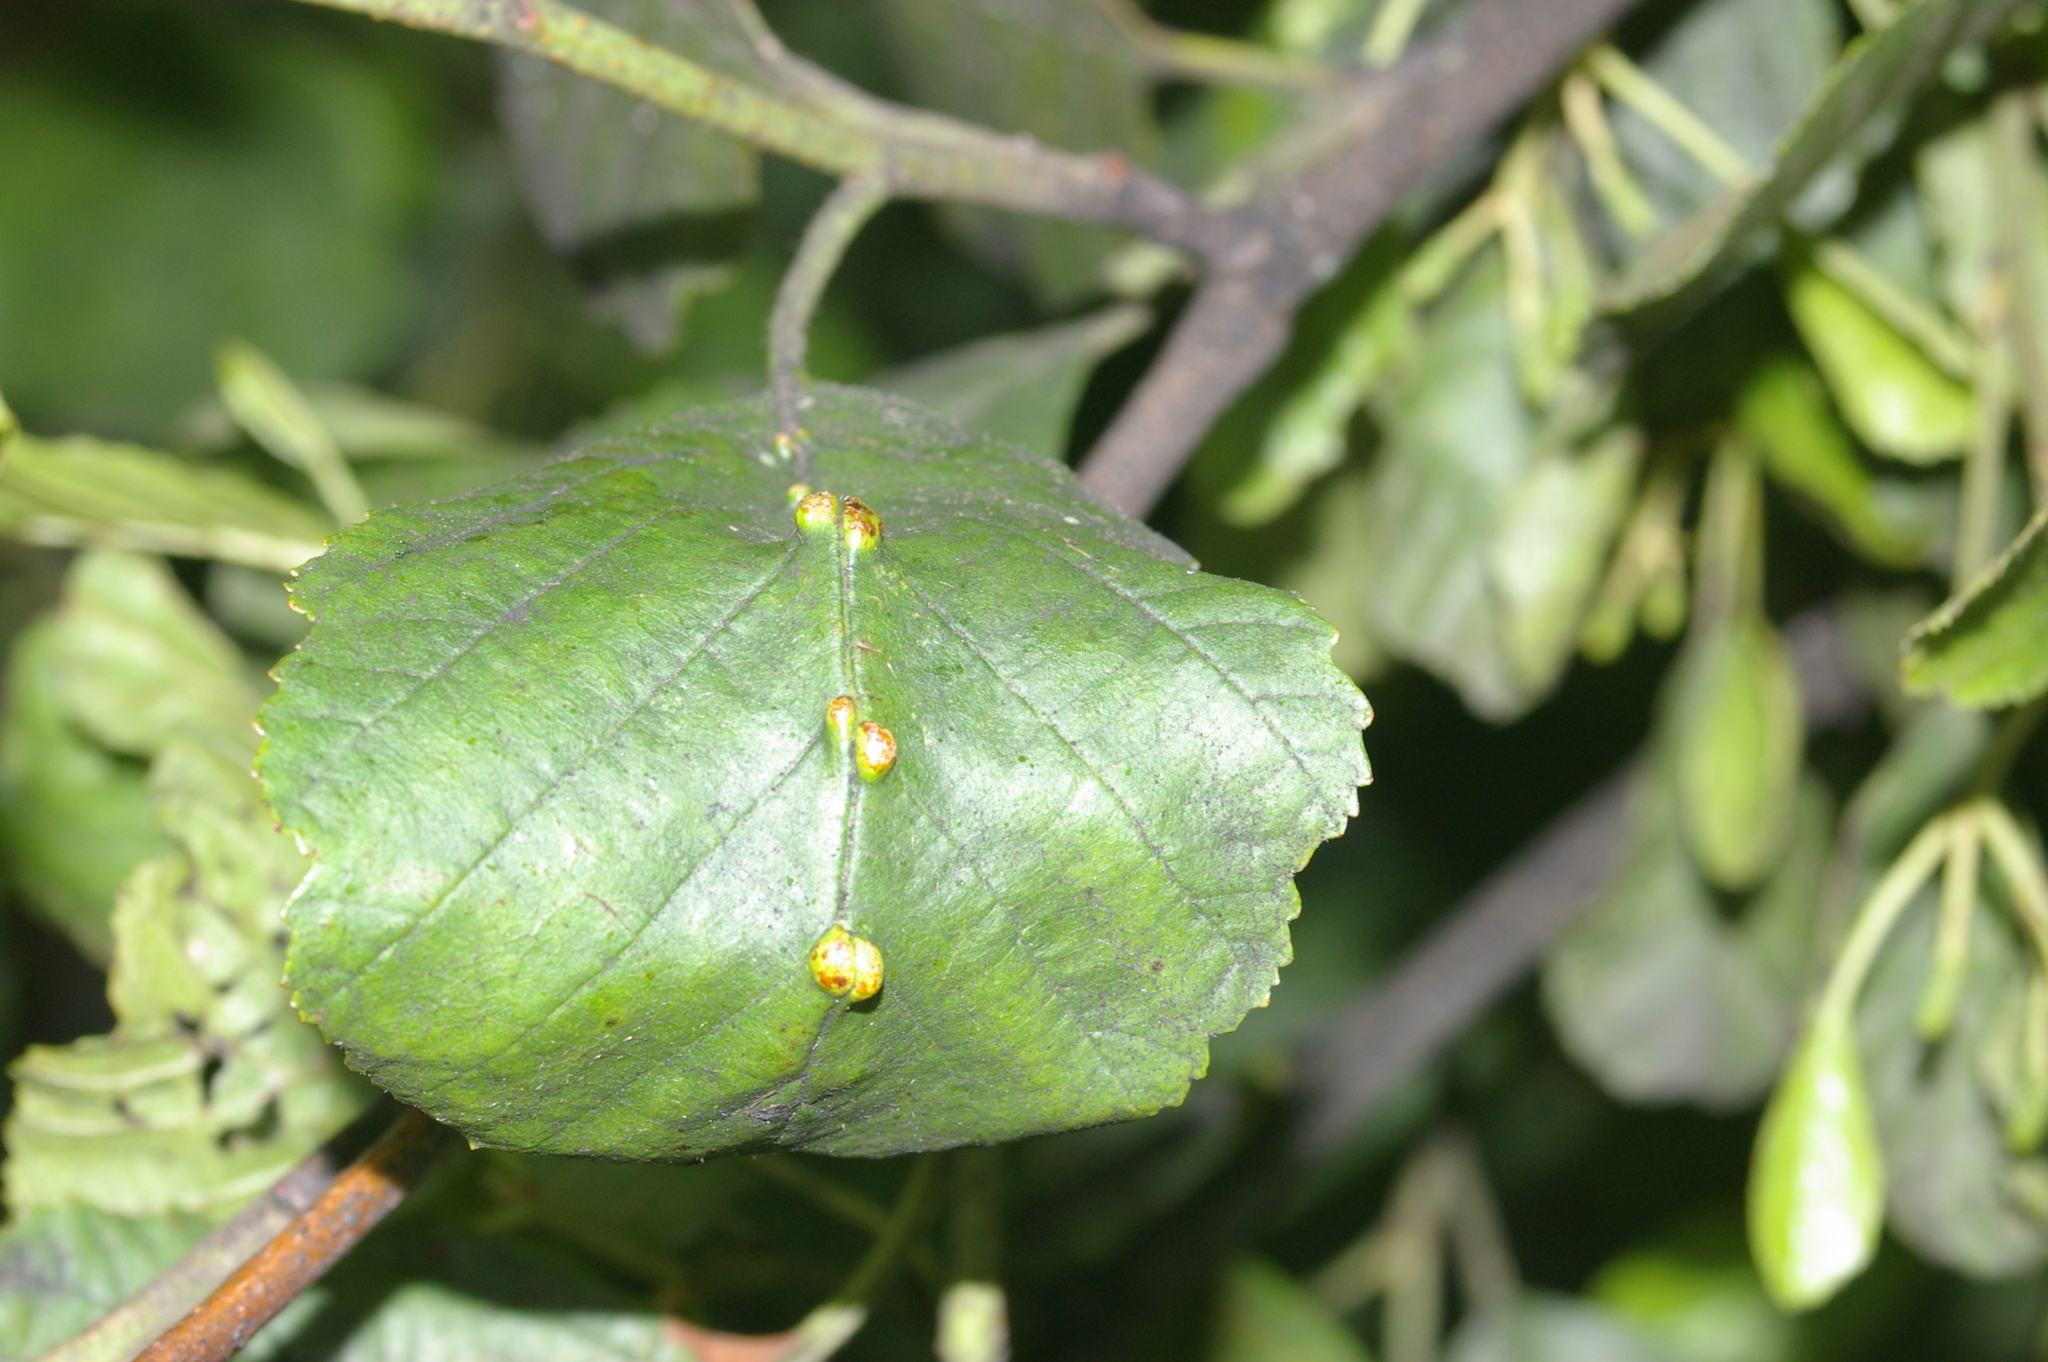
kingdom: Animalia
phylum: Arthropoda
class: Arachnida
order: Trombidiformes
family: Eriophyidae
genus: Eriophyes
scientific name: Eriophyes inangulis
